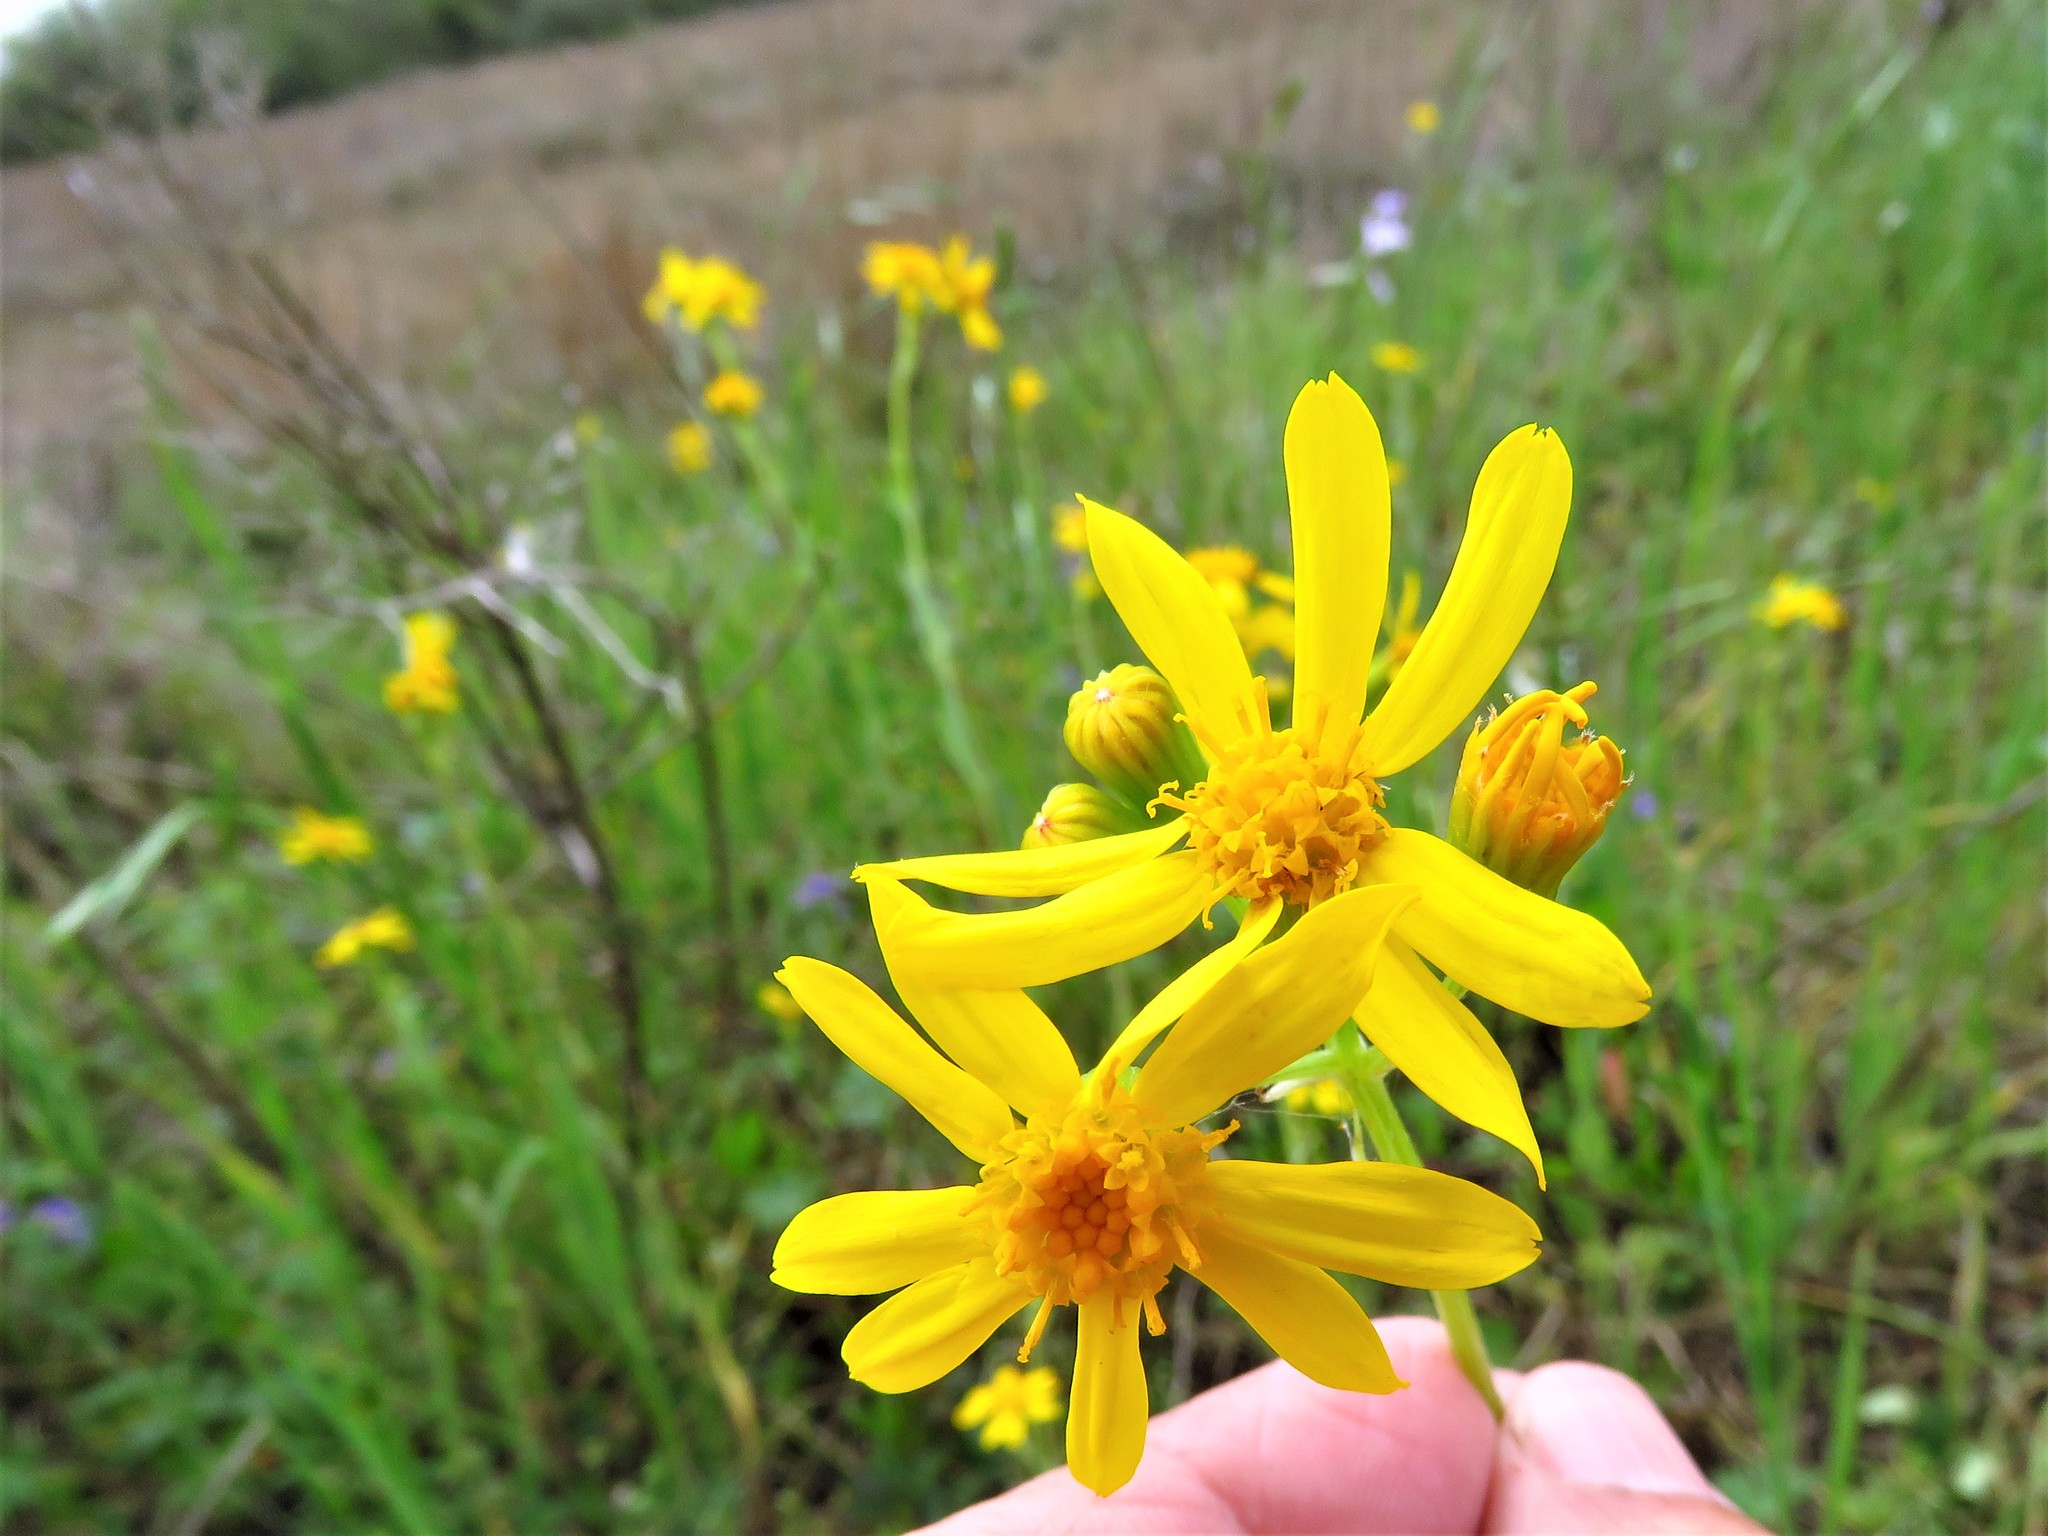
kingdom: Plantae
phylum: Tracheophyta
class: Magnoliopsida
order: Asterales
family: Asteraceae
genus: Senecio
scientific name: Senecio ampullaceus
